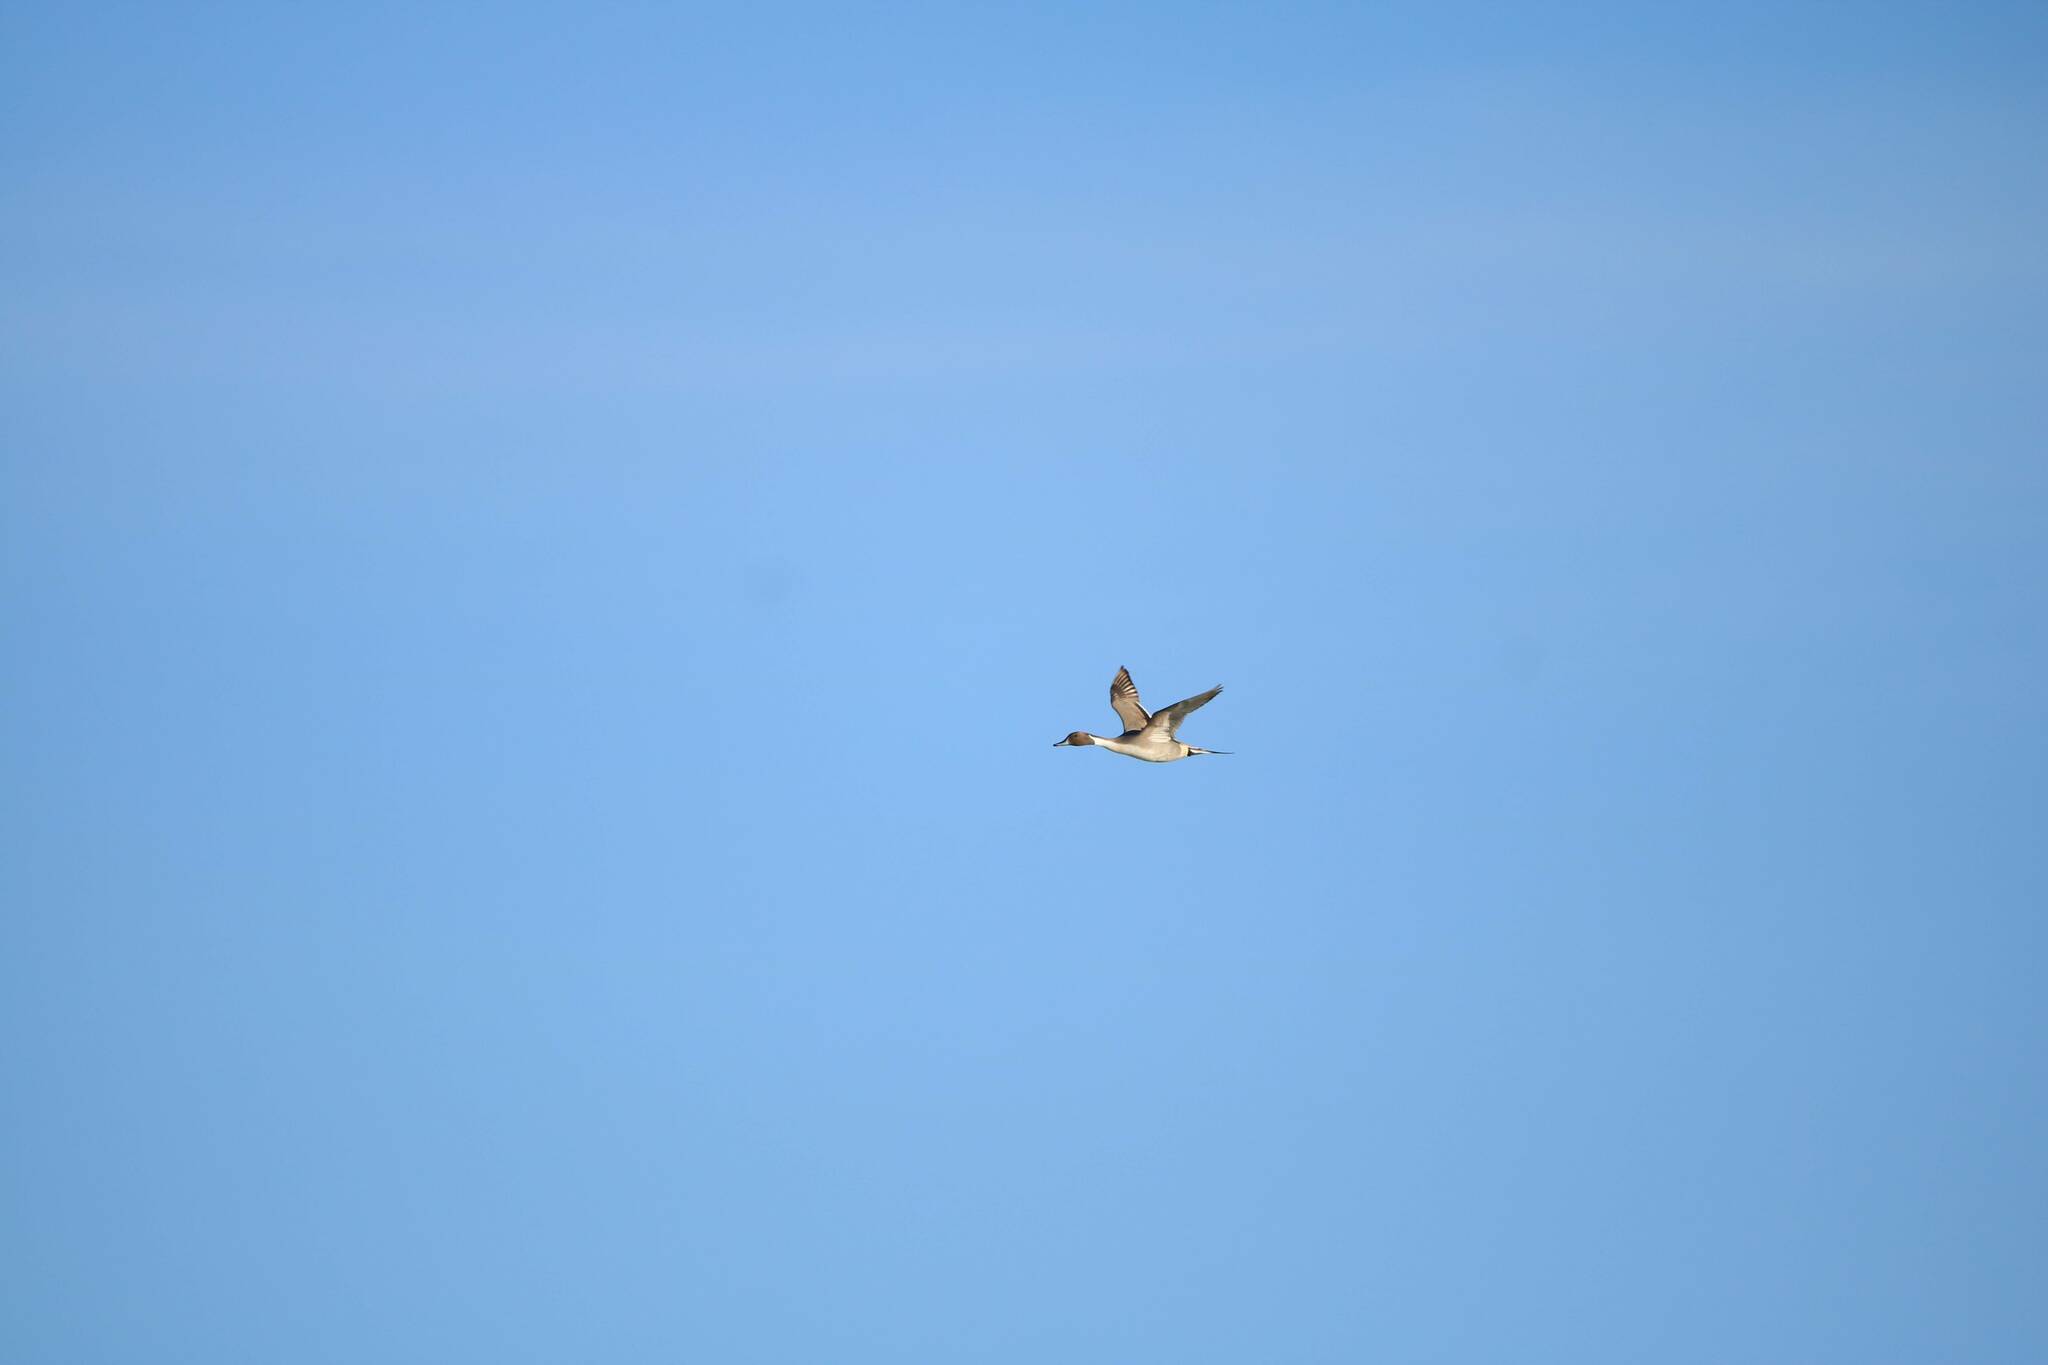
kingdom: Animalia
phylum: Chordata
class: Aves
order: Anseriformes
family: Anatidae
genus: Anas
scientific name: Anas acuta
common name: Northern pintail
